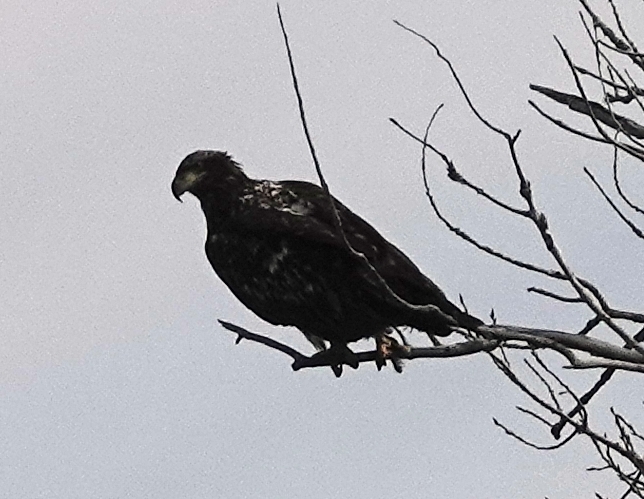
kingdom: Animalia
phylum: Chordata
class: Aves
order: Accipitriformes
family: Accipitridae
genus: Haliaeetus
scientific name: Haliaeetus leucocephalus
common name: Bald eagle
